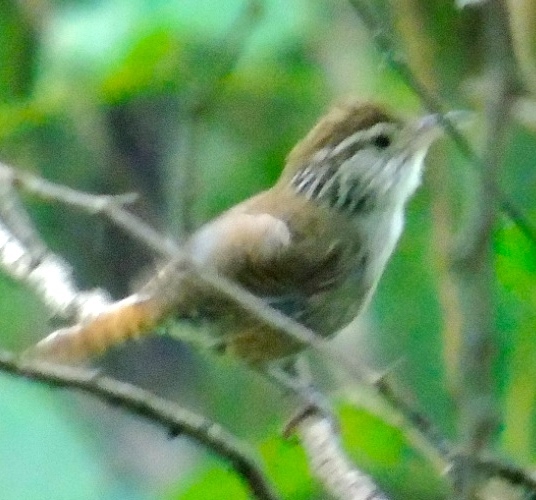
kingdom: Animalia
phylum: Chordata
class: Aves
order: Passeriformes
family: Troglodytidae
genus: Thryophilus
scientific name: Thryophilus sinaloa
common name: Sinaloa wren
